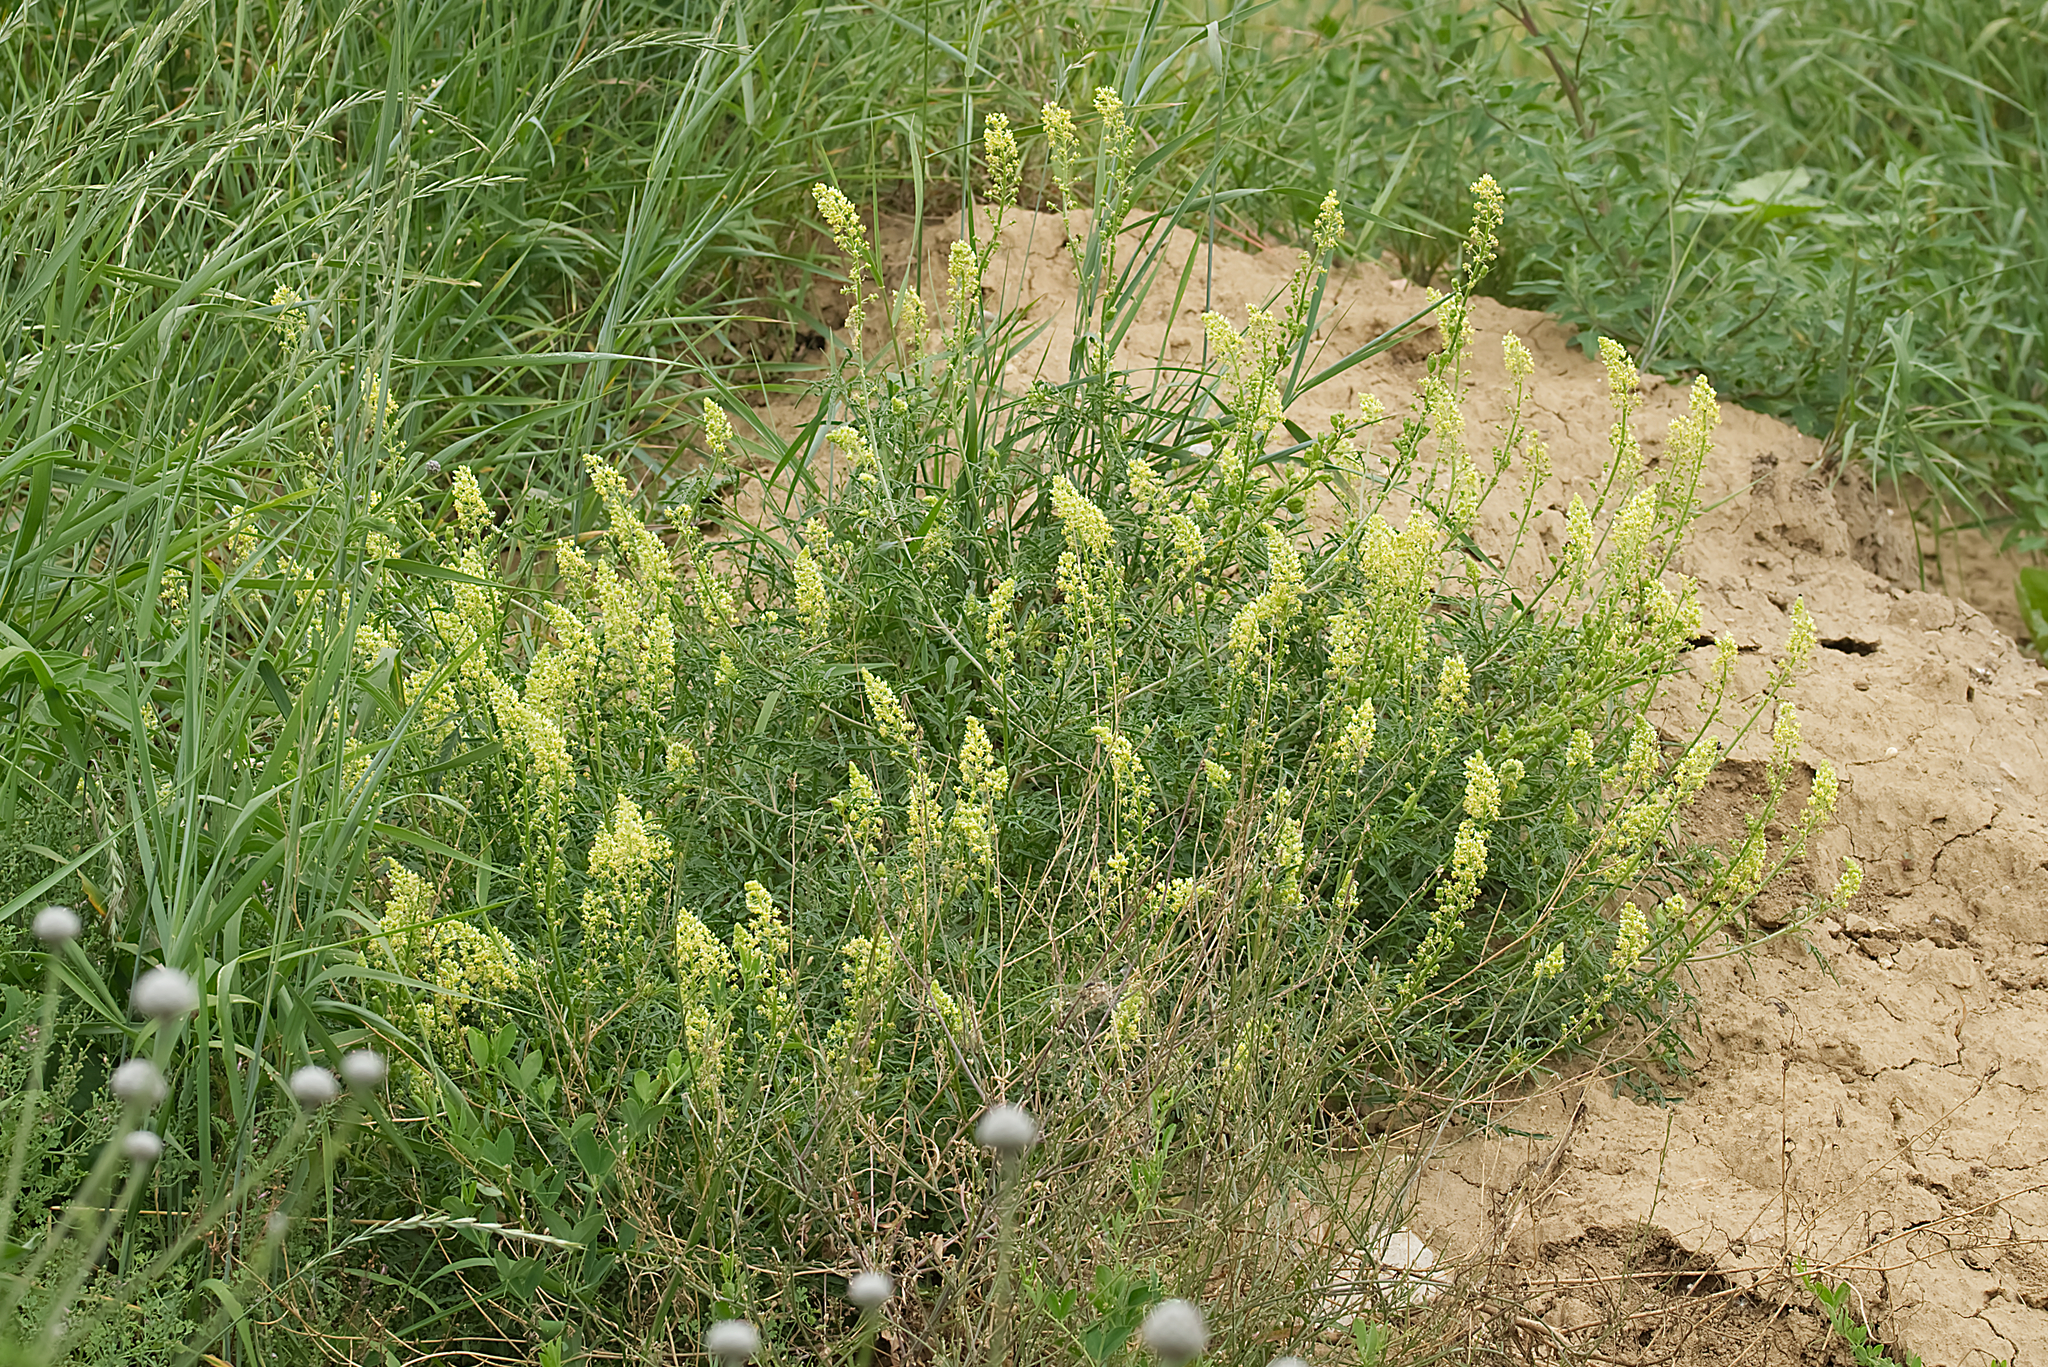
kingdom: Plantae
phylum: Tracheophyta
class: Magnoliopsida
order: Brassicales
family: Resedaceae
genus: Reseda
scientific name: Reseda lutea
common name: Wild mignonette
